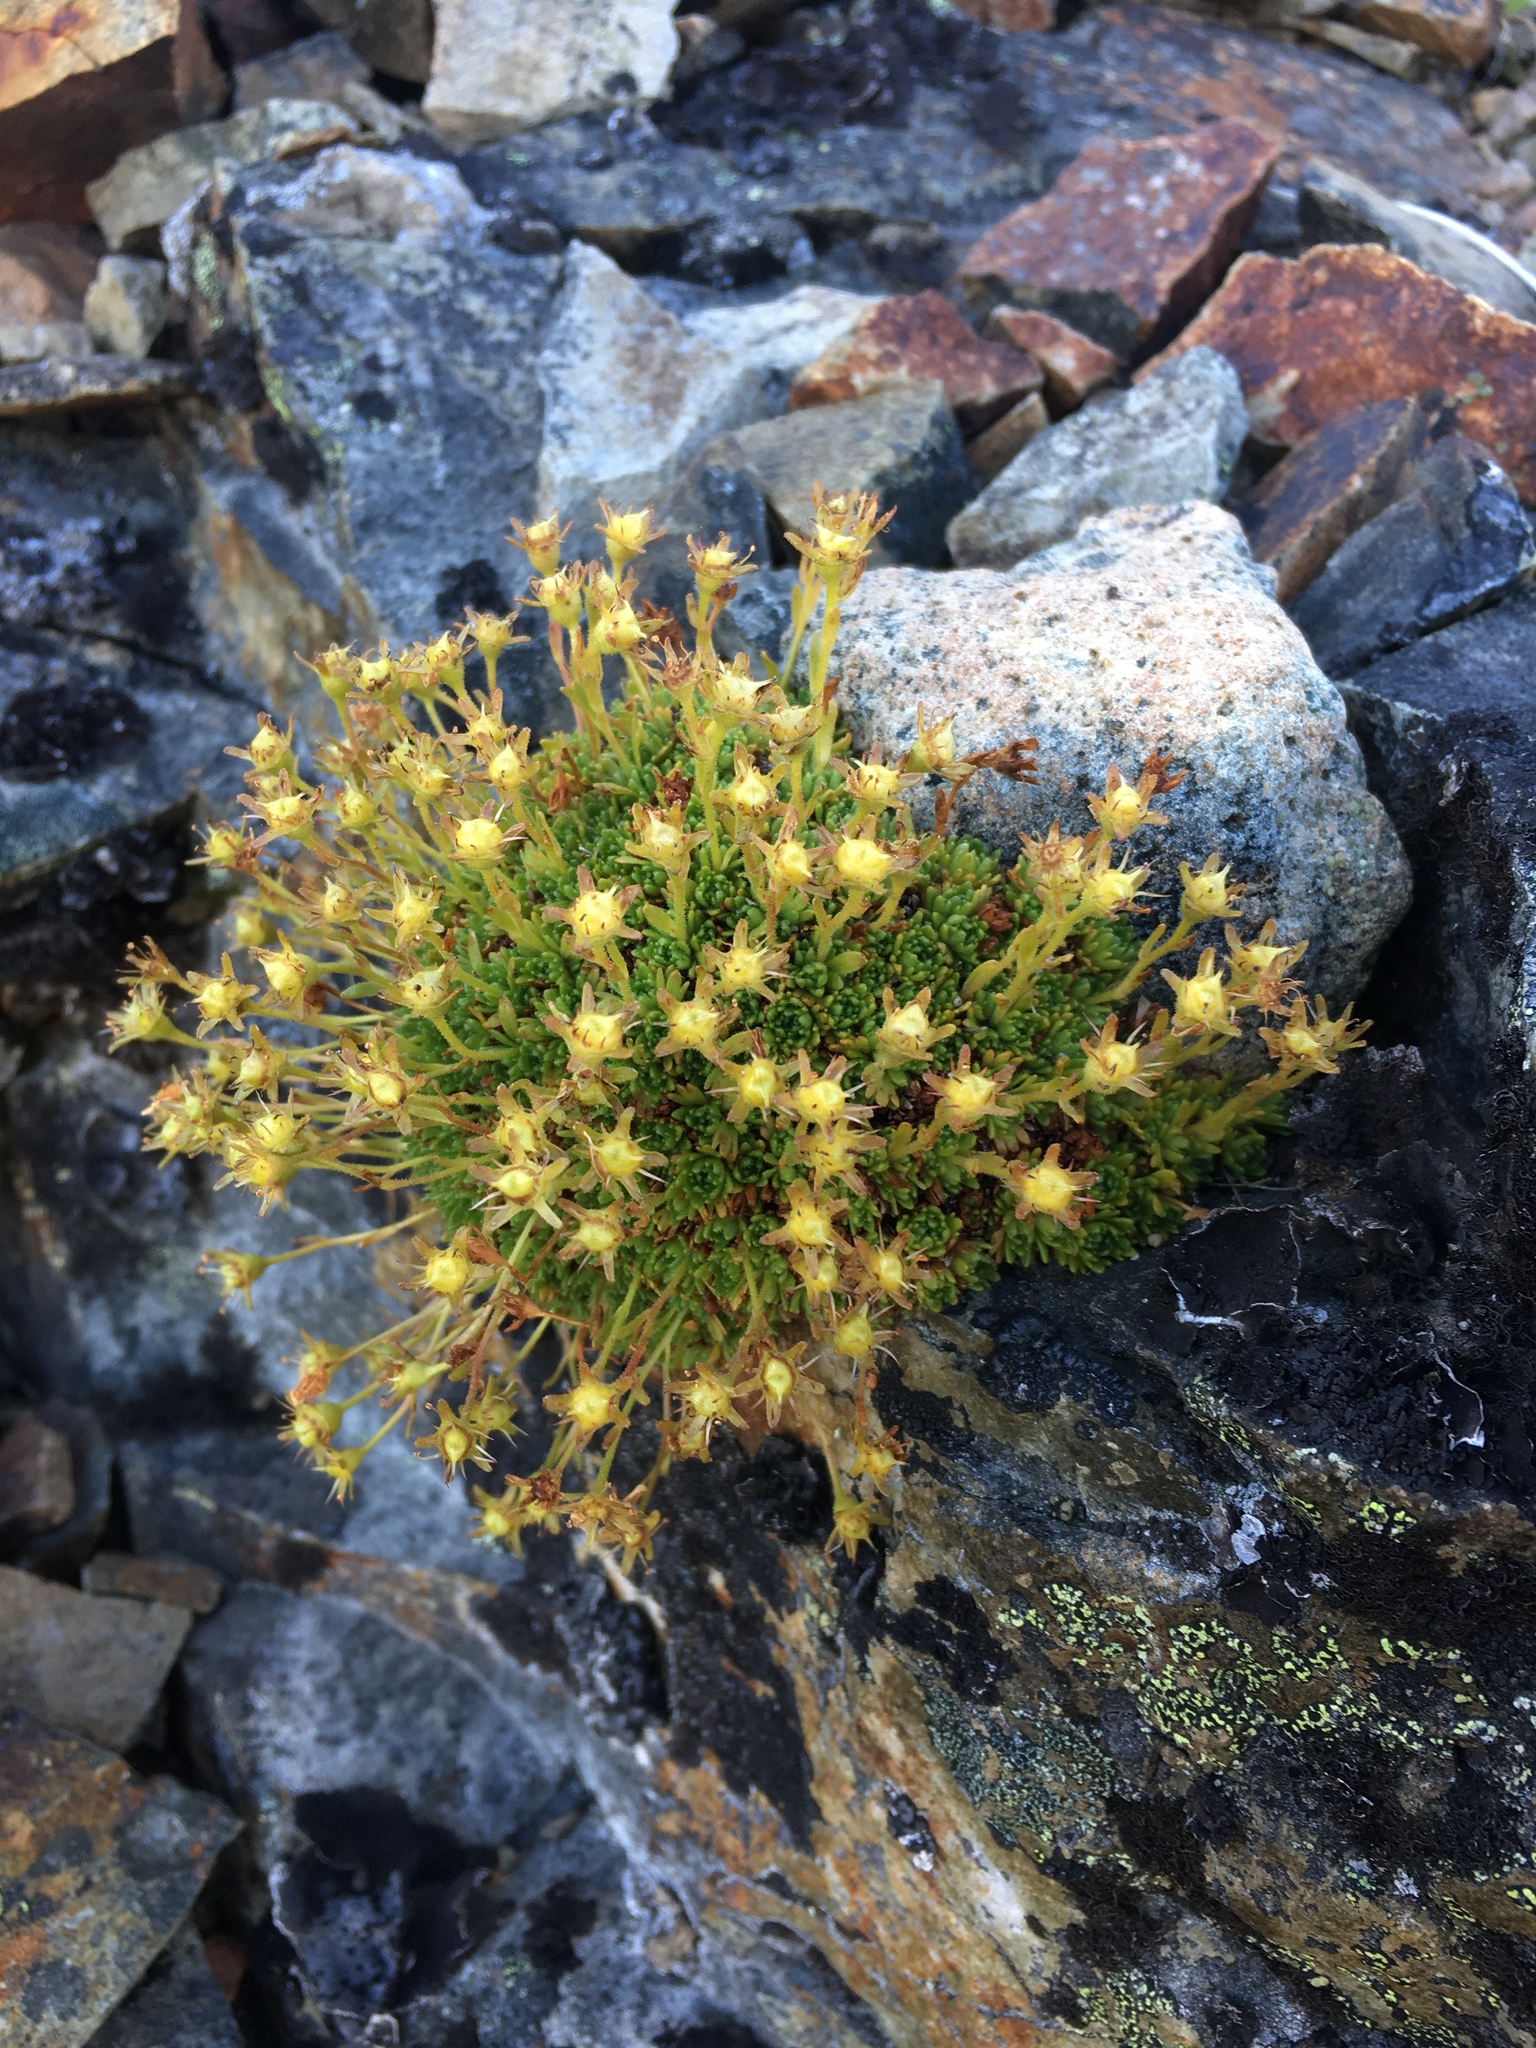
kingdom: Plantae
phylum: Tracheophyta
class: Magnoliopsida
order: Saxifragales
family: Saxifragaceae
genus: Saxifraga
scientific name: Saxifraga cespitosa
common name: Tufted saxifrage
